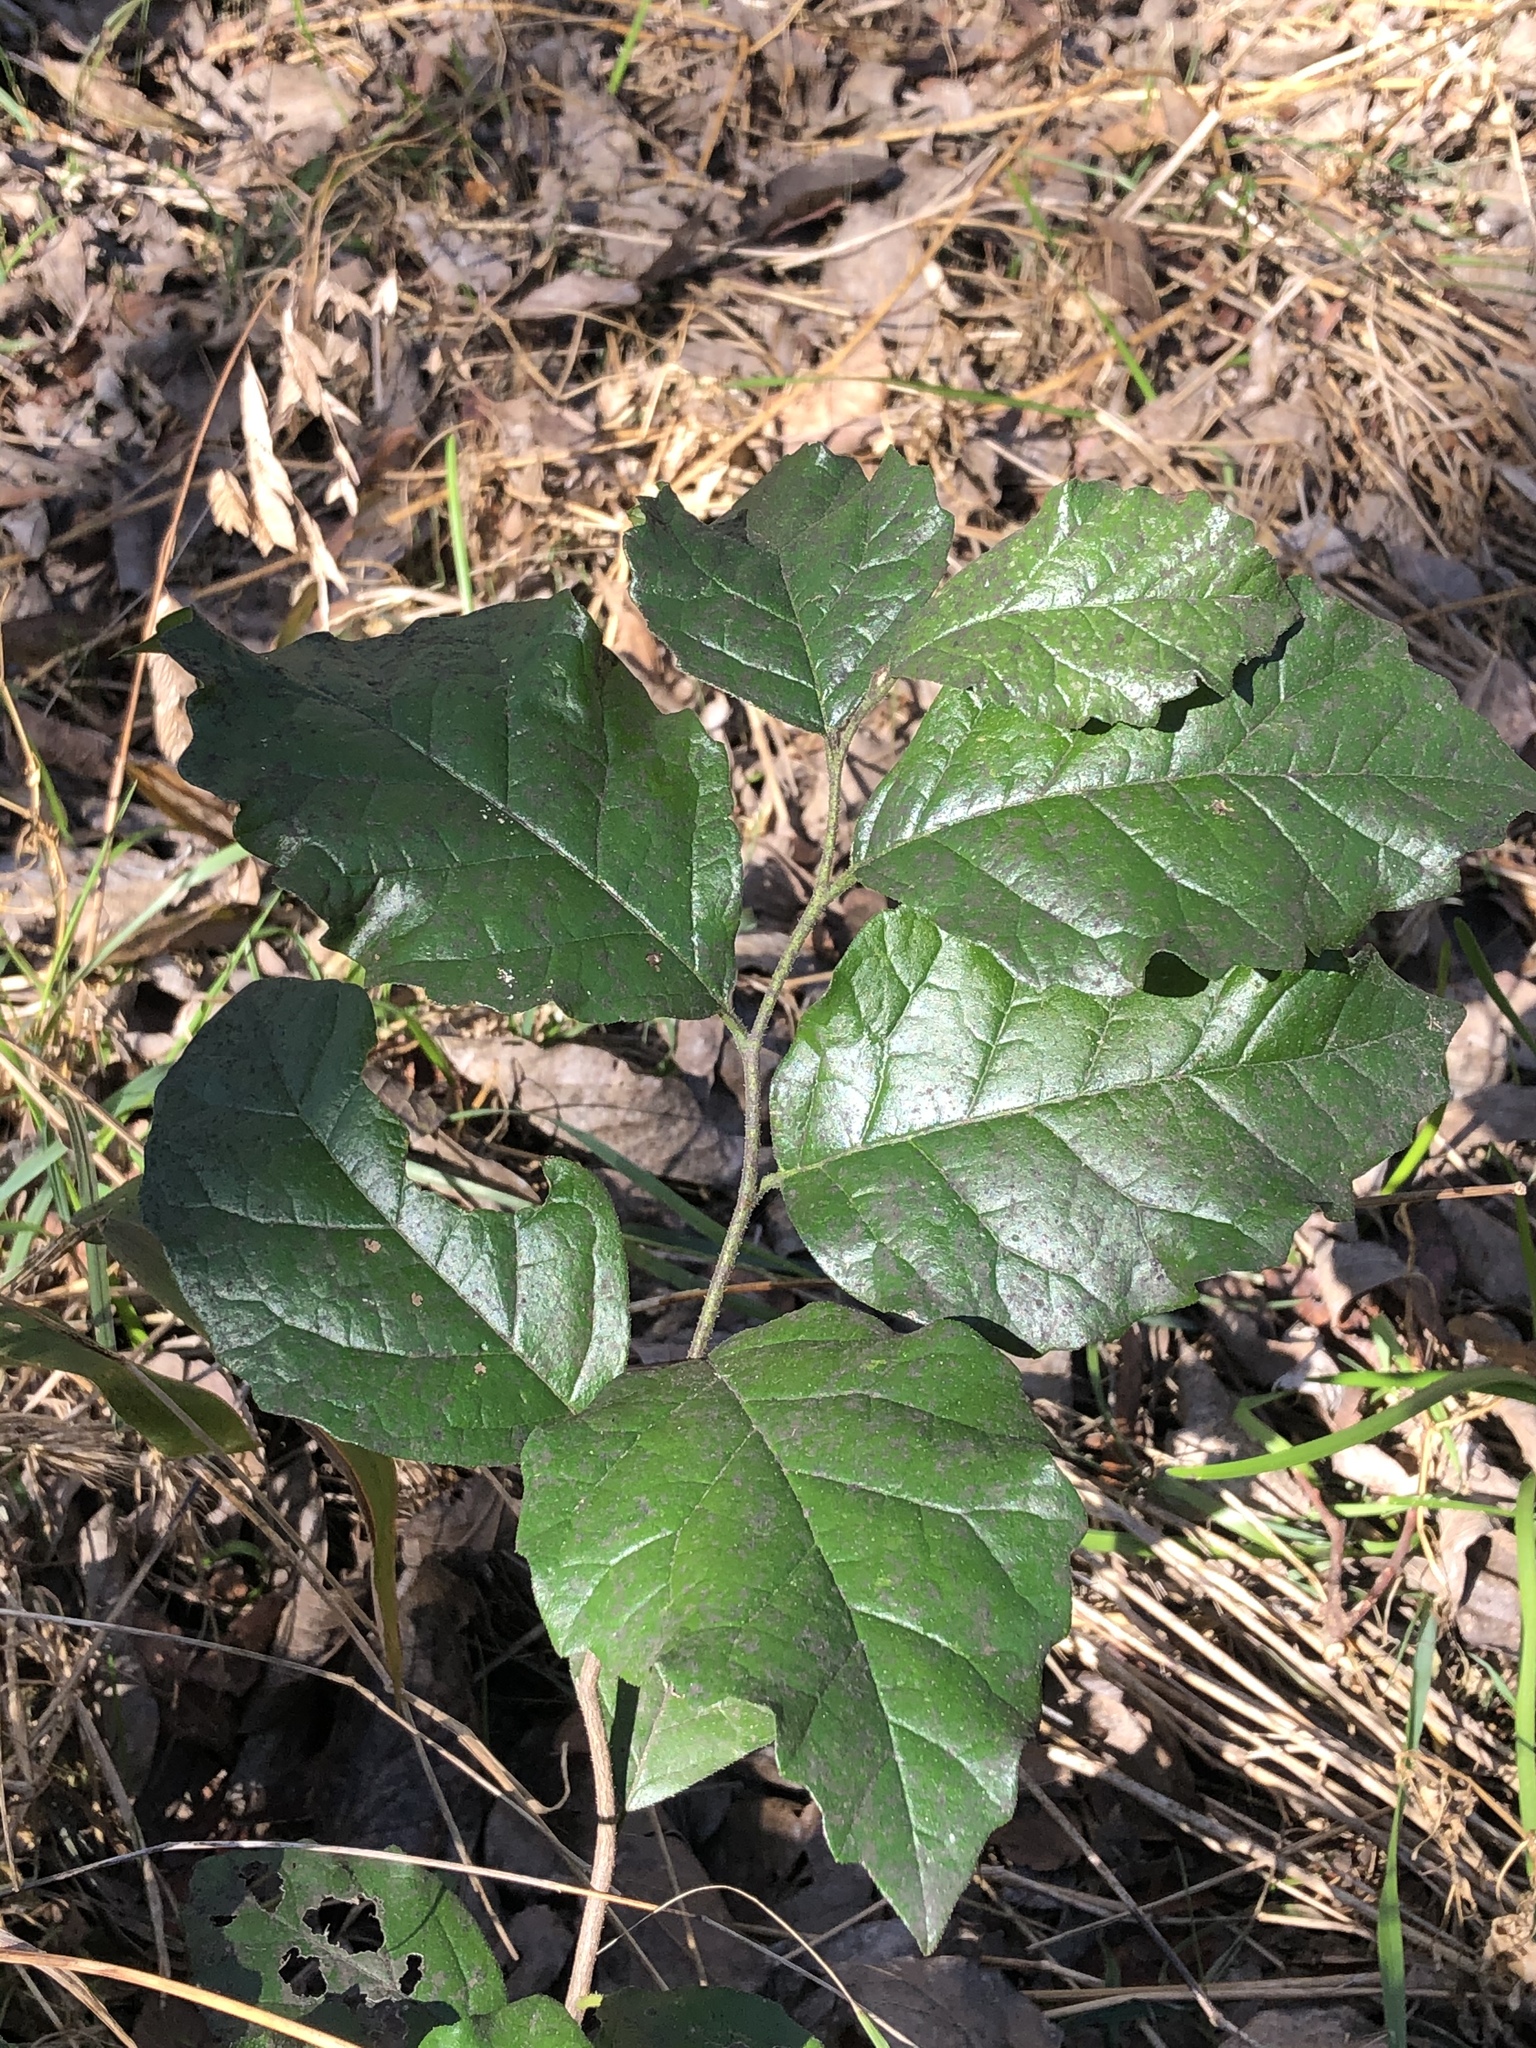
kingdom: Plantae
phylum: Tracheophyta
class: Magnoliopsida
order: Boraginales
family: Ehretiaceae
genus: Ehretia
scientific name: Ehretia anacua
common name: Sugarberry
